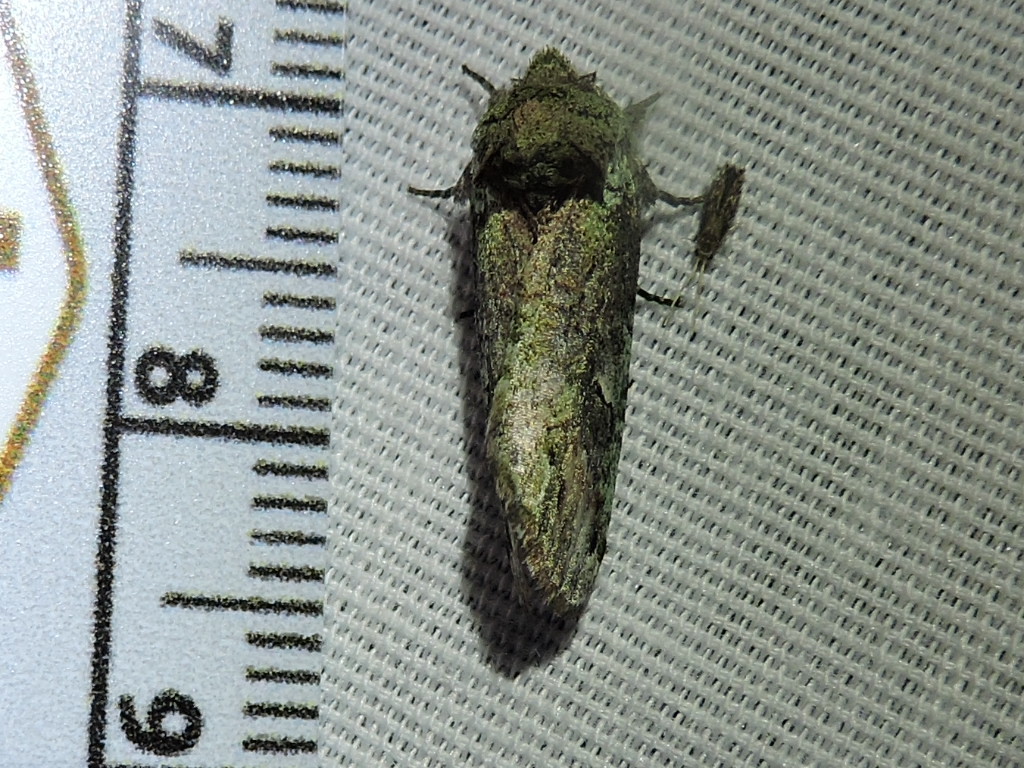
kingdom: Animalia
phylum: Arthropoda
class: Insecta
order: Lepidoptera
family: Notodontidae
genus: Schizura
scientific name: Schizura
